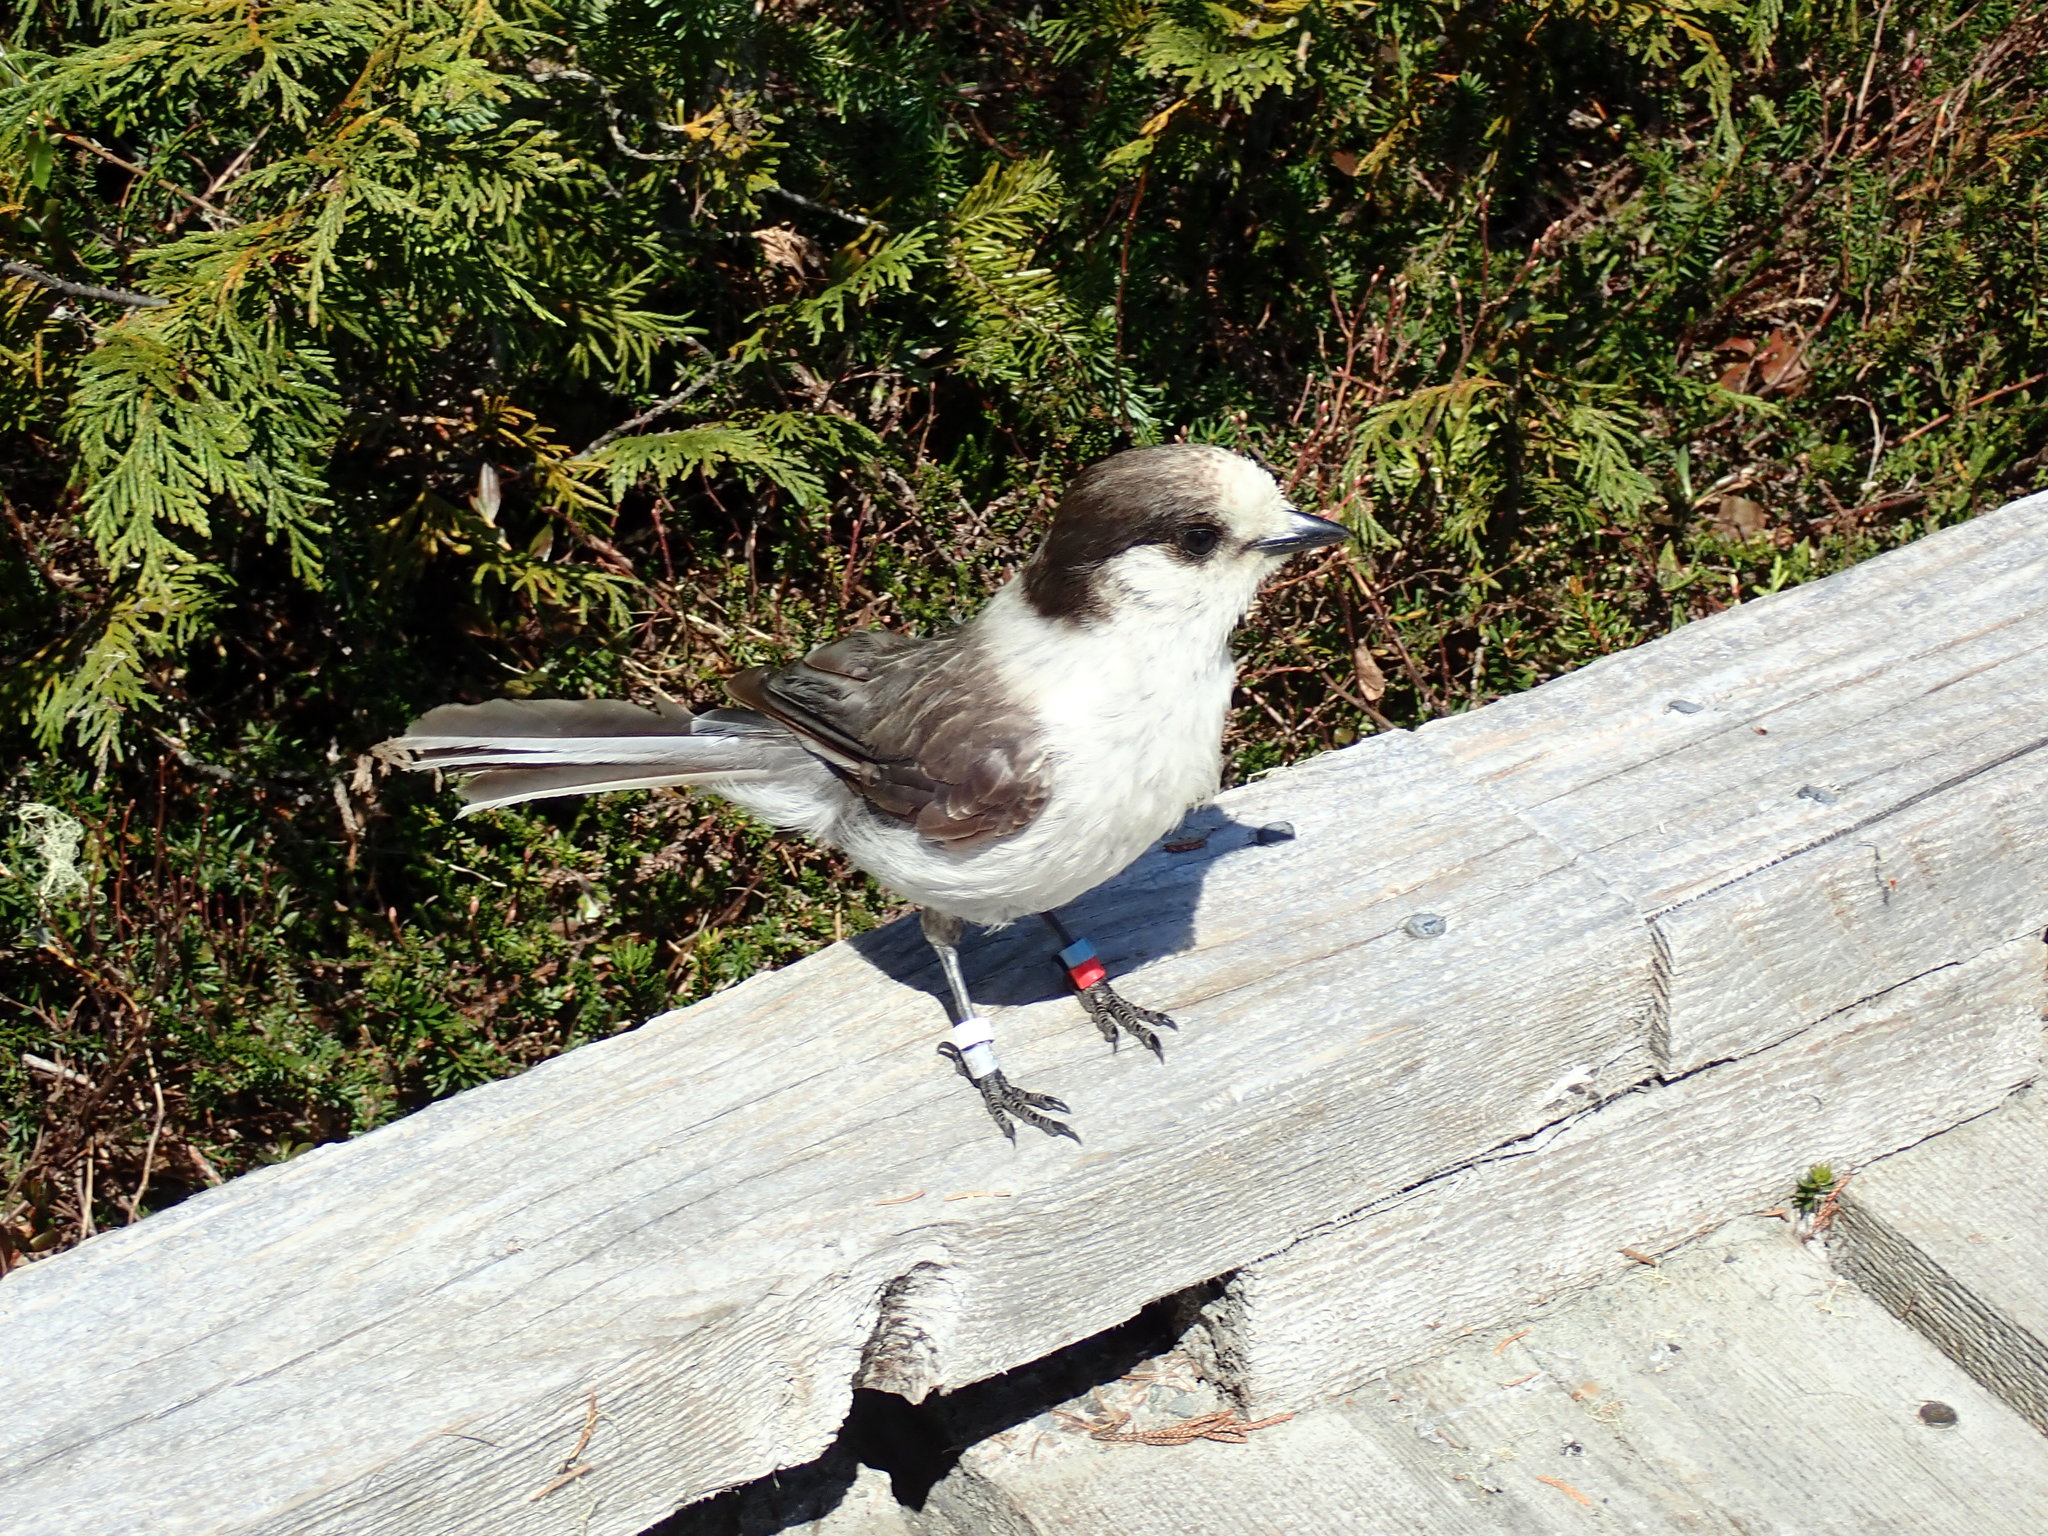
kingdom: Animalia
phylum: Chordata
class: Aves
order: Passeriformes
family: Corvidae
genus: Perisoreus
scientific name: Perisoreus canadensis
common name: Gray jay
